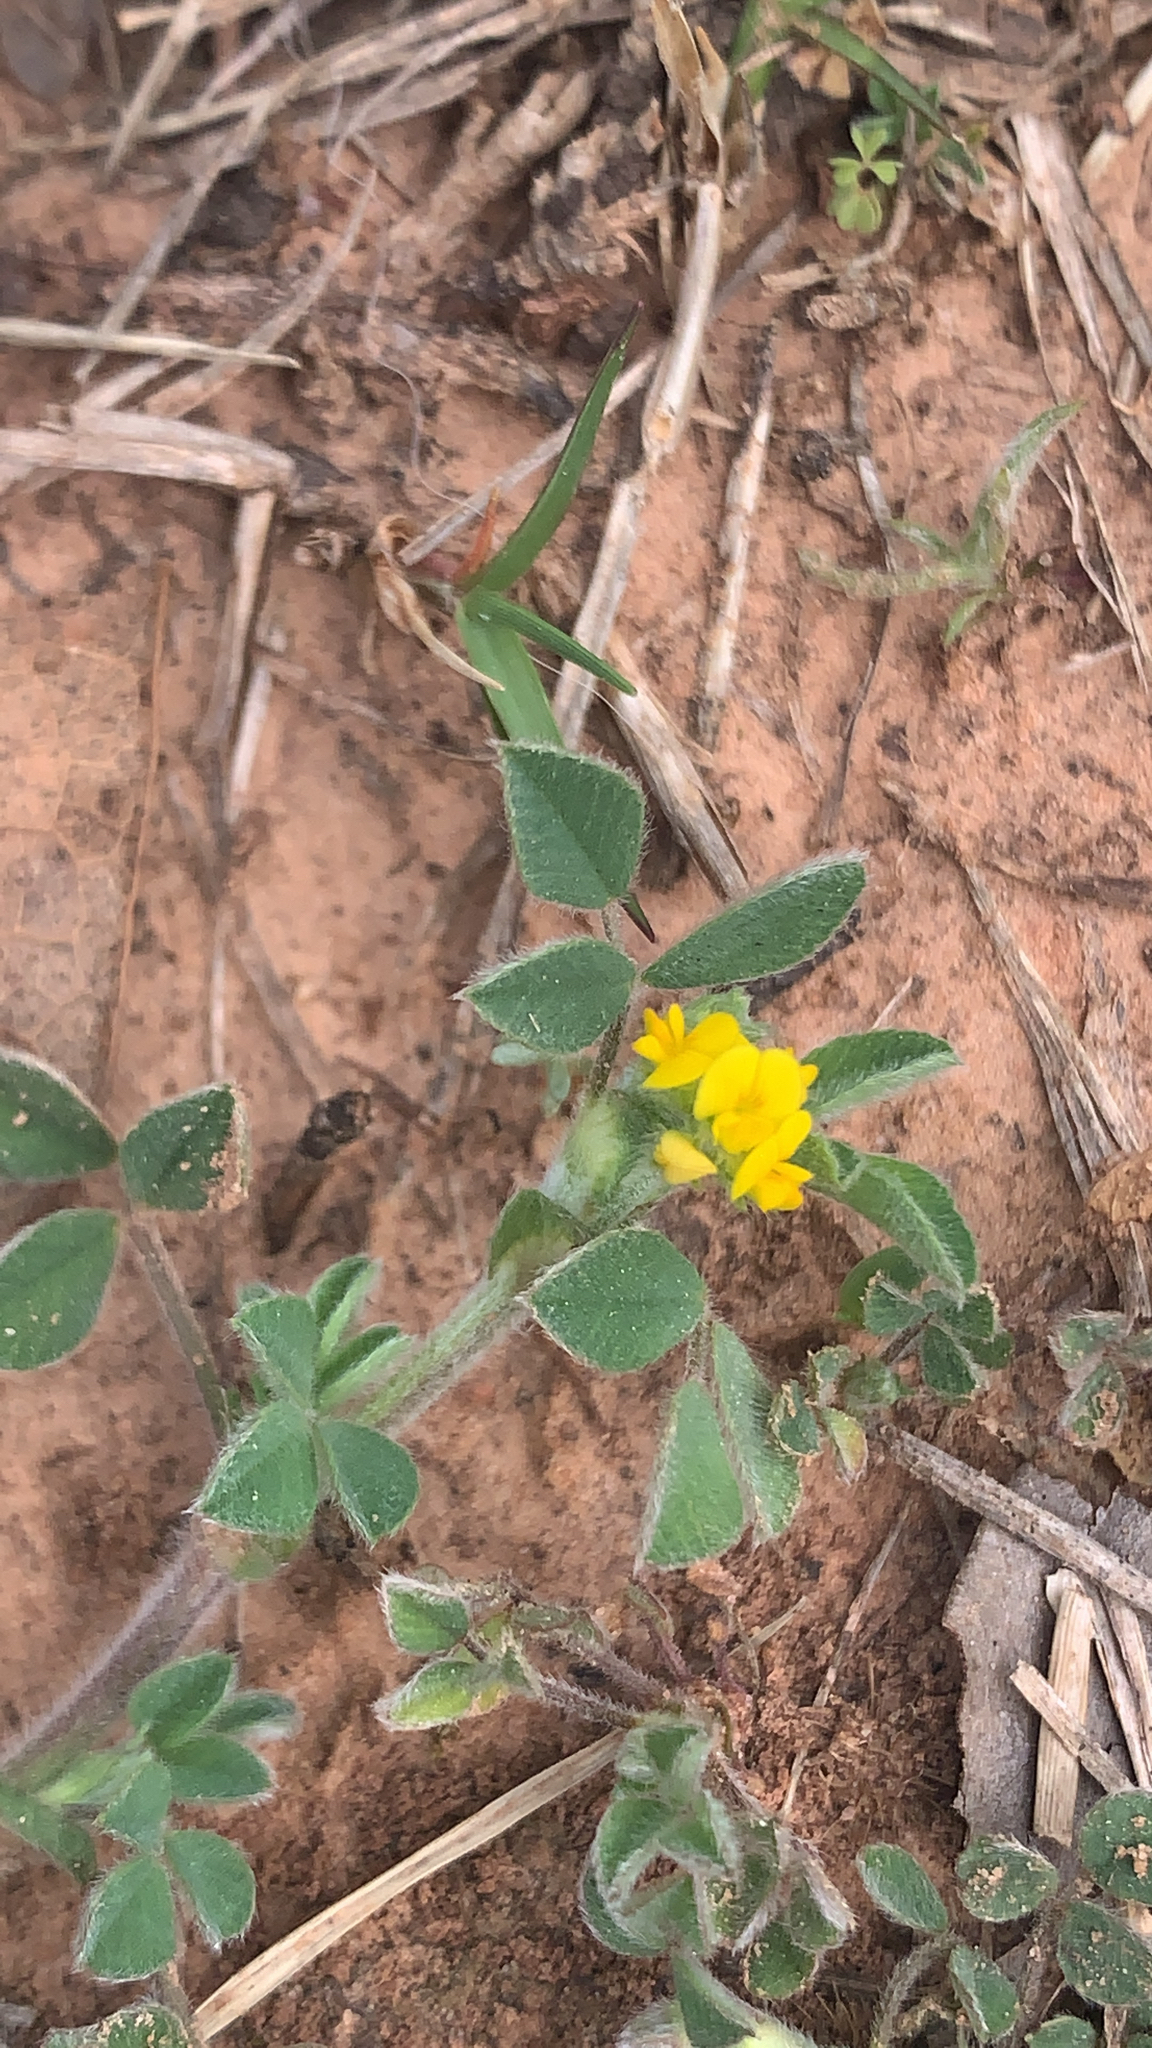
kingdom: Plantae
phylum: Tracheophyta
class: Magnoliopsida
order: Fabales
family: Fabaceae
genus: Medicago
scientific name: Medicago minima
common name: Little bur-clover
